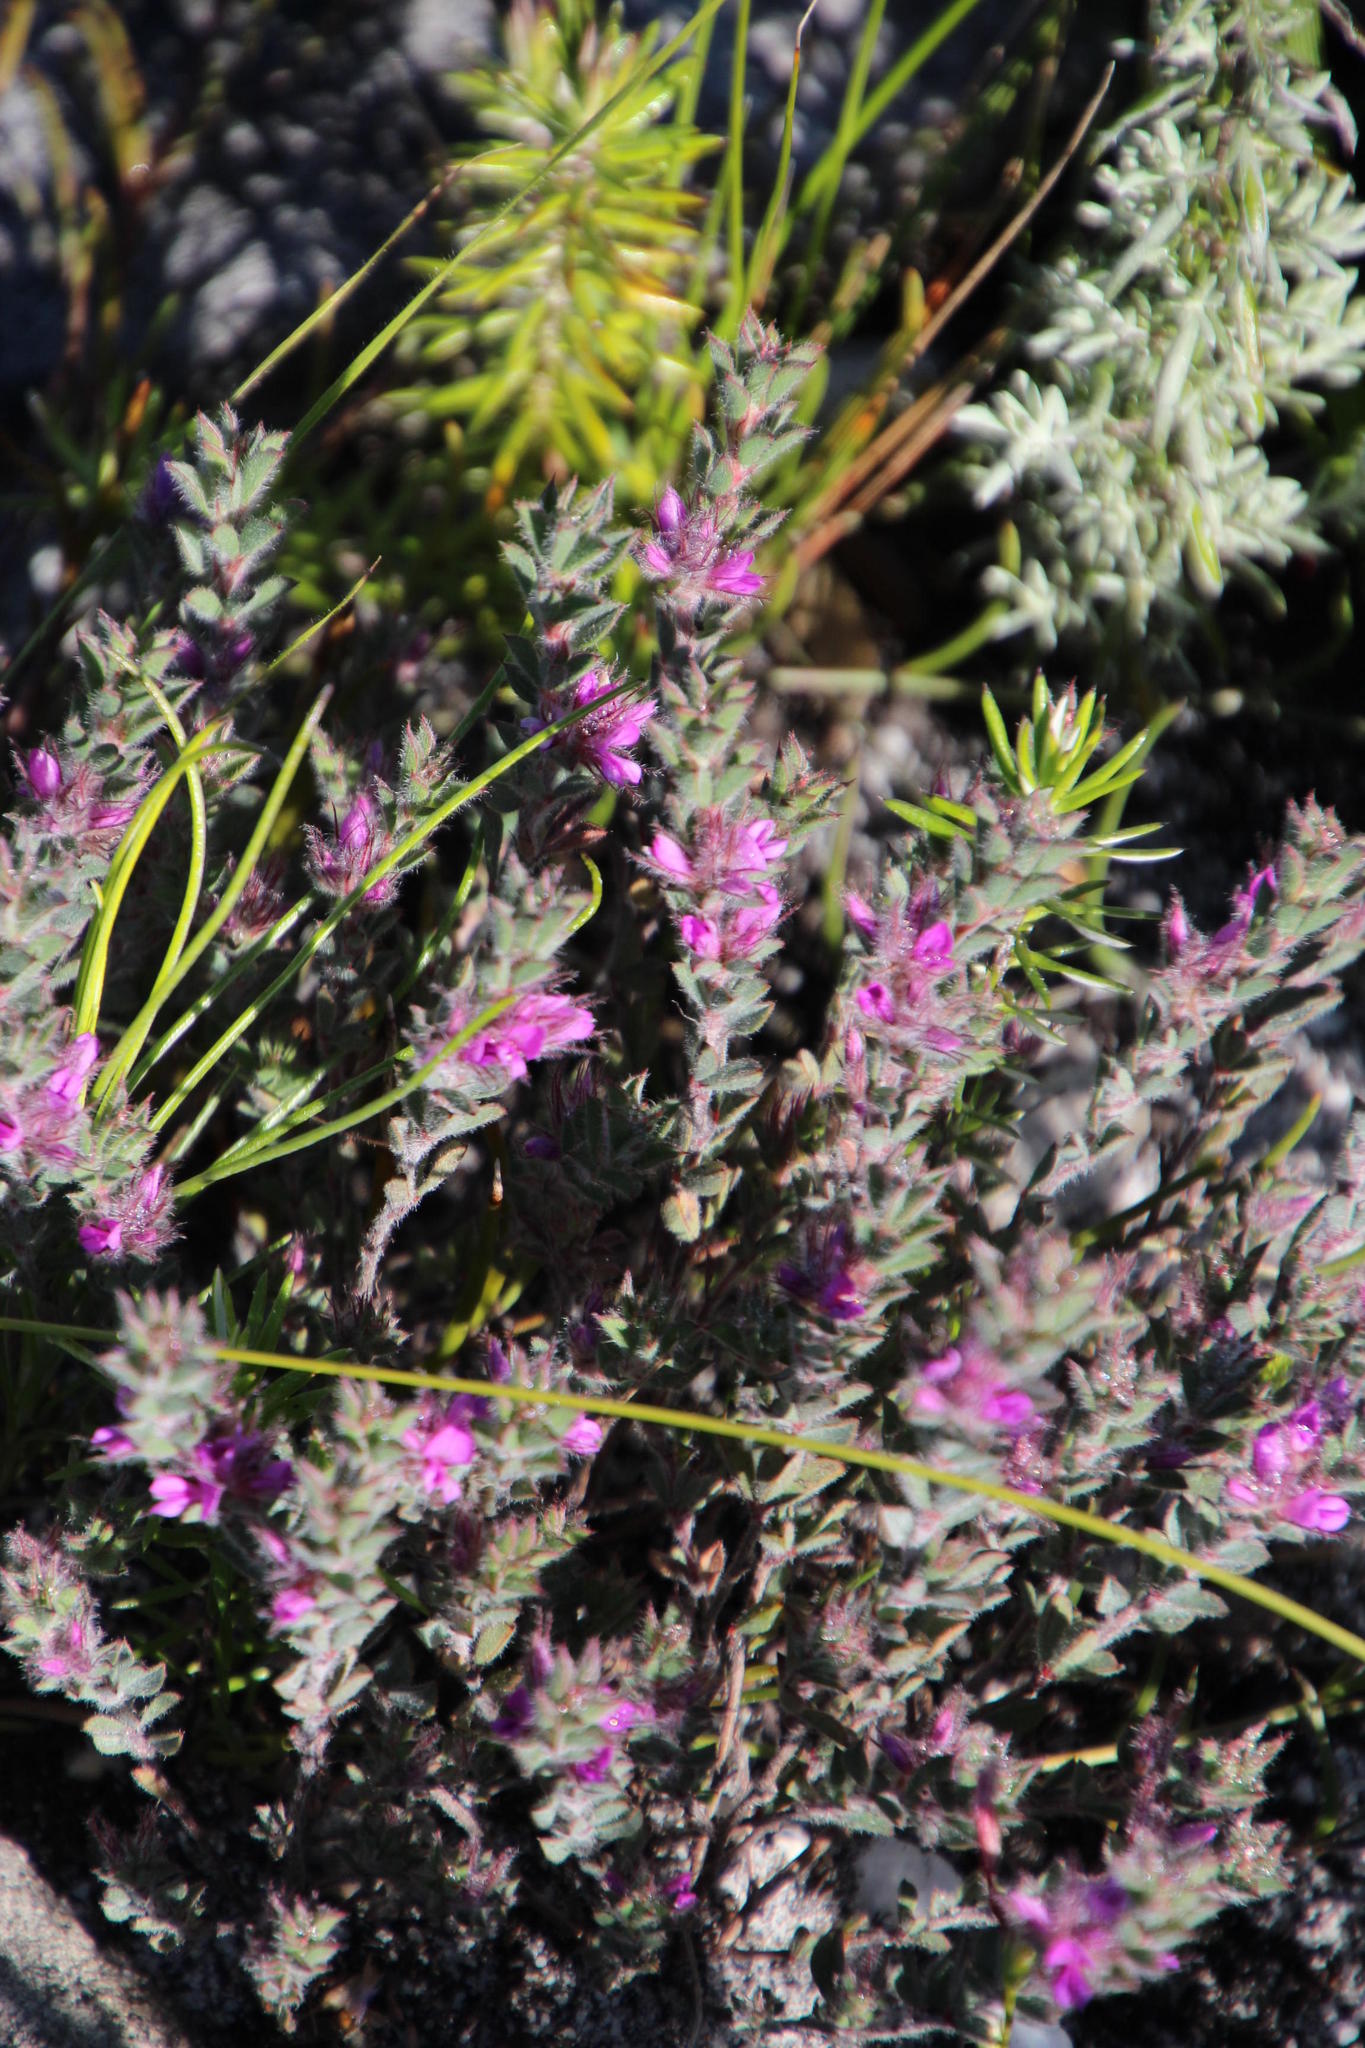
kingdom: Plantae
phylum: Tracheophyta
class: Magnoliopsida
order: Fabales
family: Fabaceae
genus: Indigofera
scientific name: Indigofera glomerata
